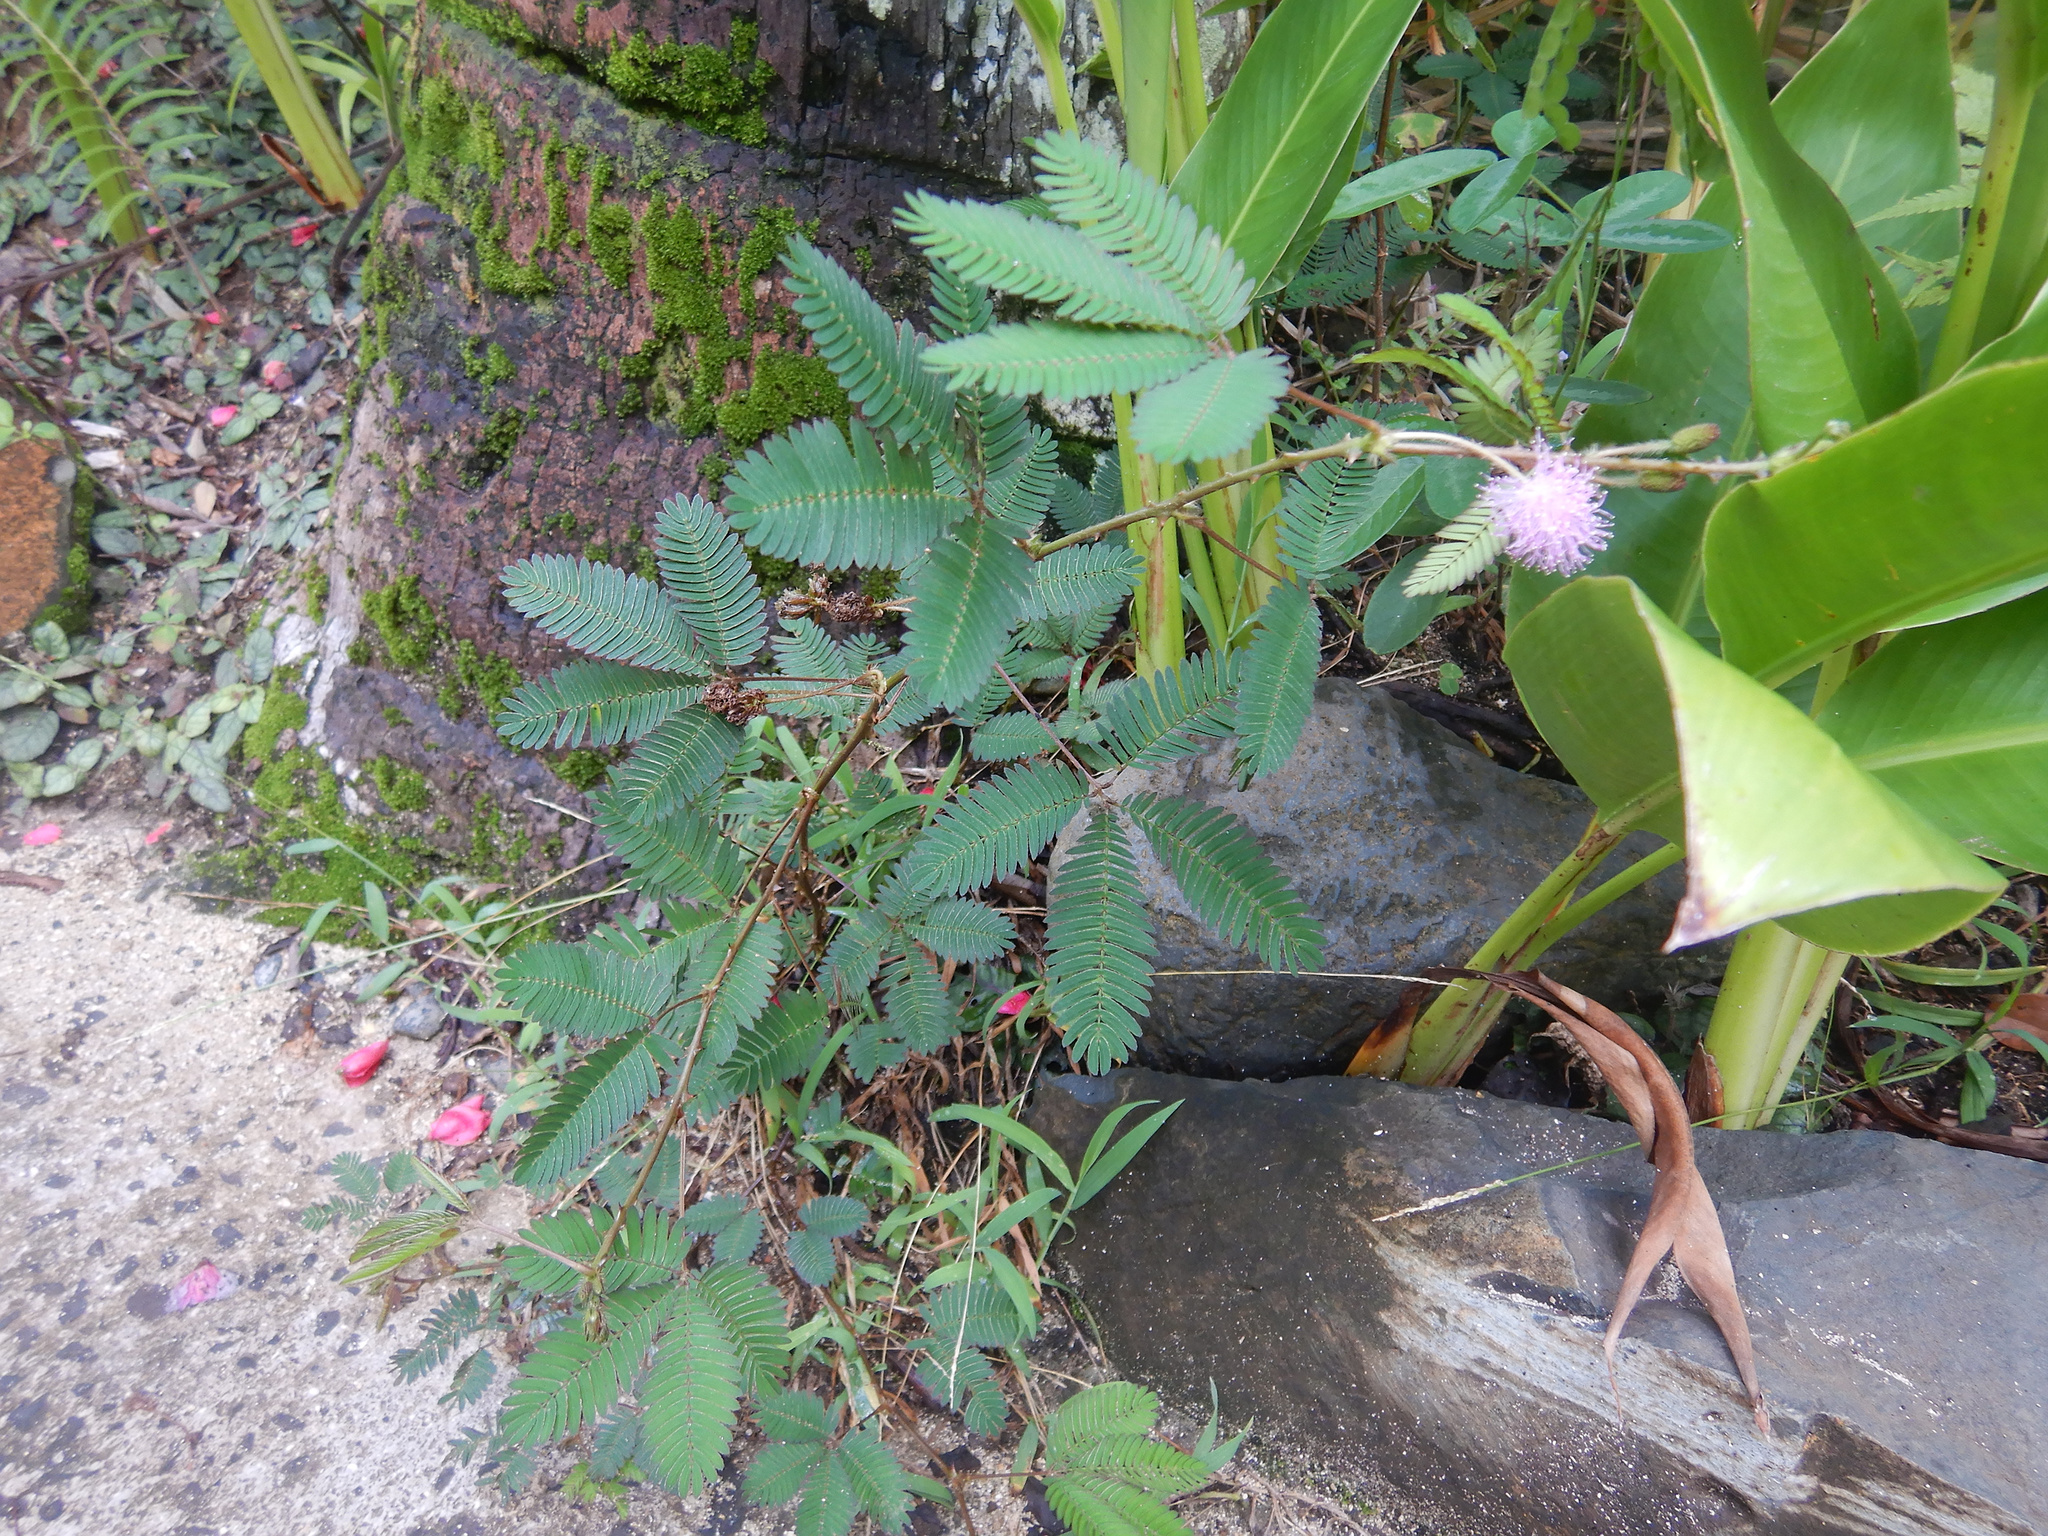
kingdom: Plantae
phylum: Tracheophyta
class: Magnoliopsida
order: Fabales
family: Fabaceae
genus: Mimosa
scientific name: Mimosa pudica
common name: Sensitive plant
